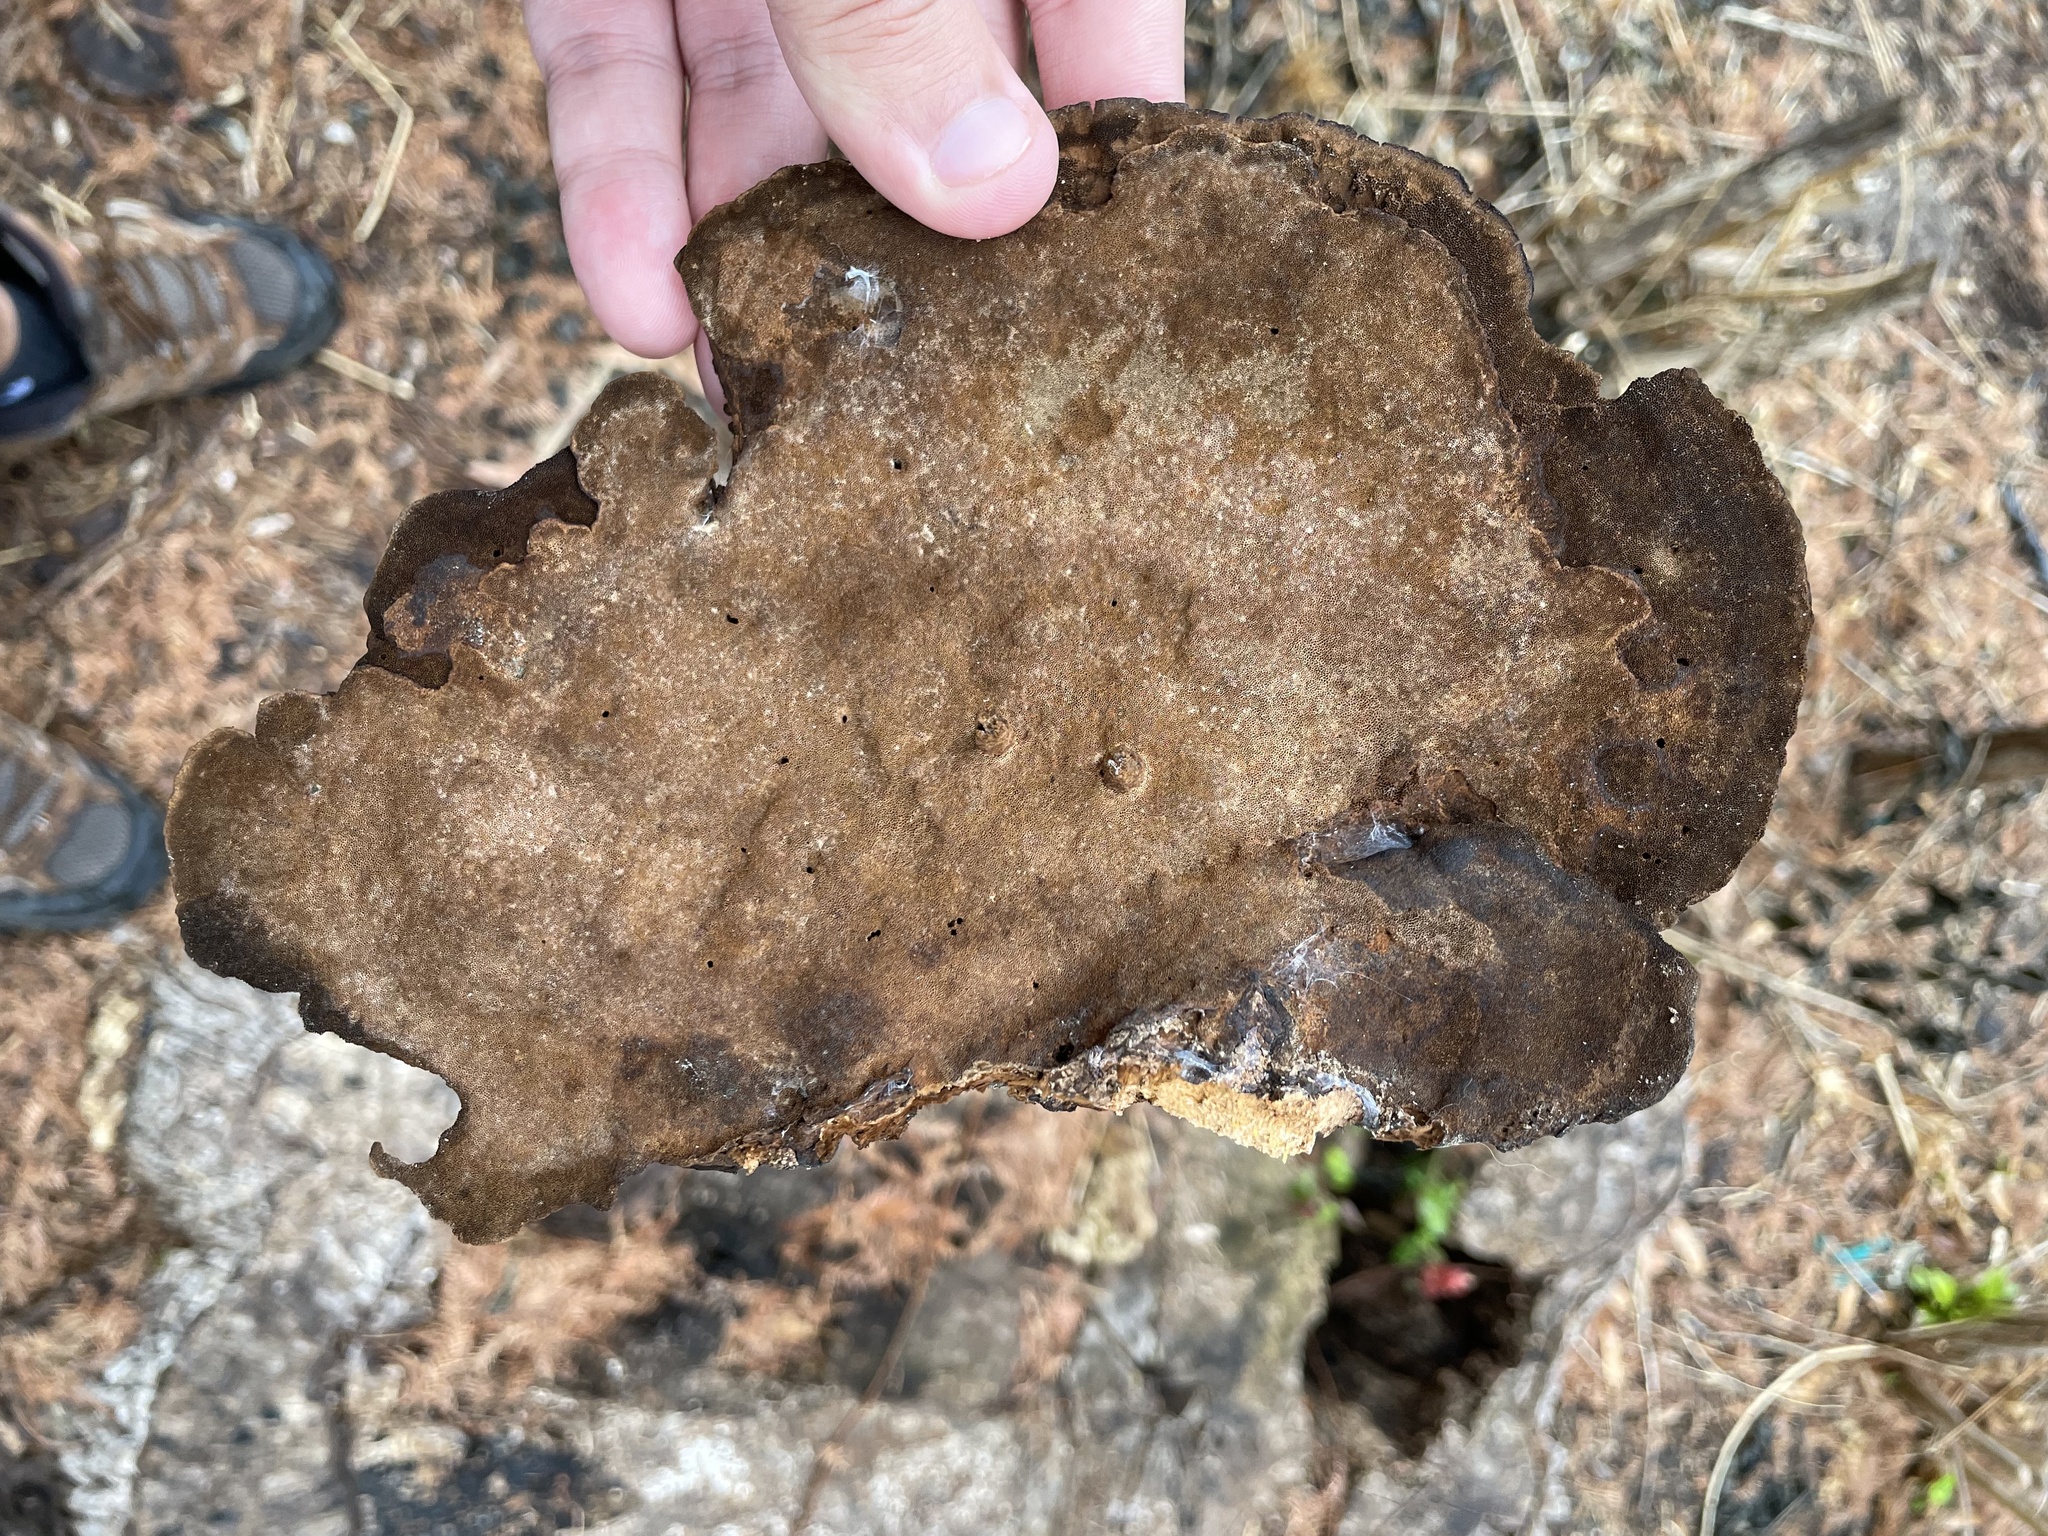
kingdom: Fungi
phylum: Basidiomycota
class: Agaricomycetes
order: Polyporales
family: Cerrenaceae
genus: Cerrena
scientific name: Cerrena hydnoides
